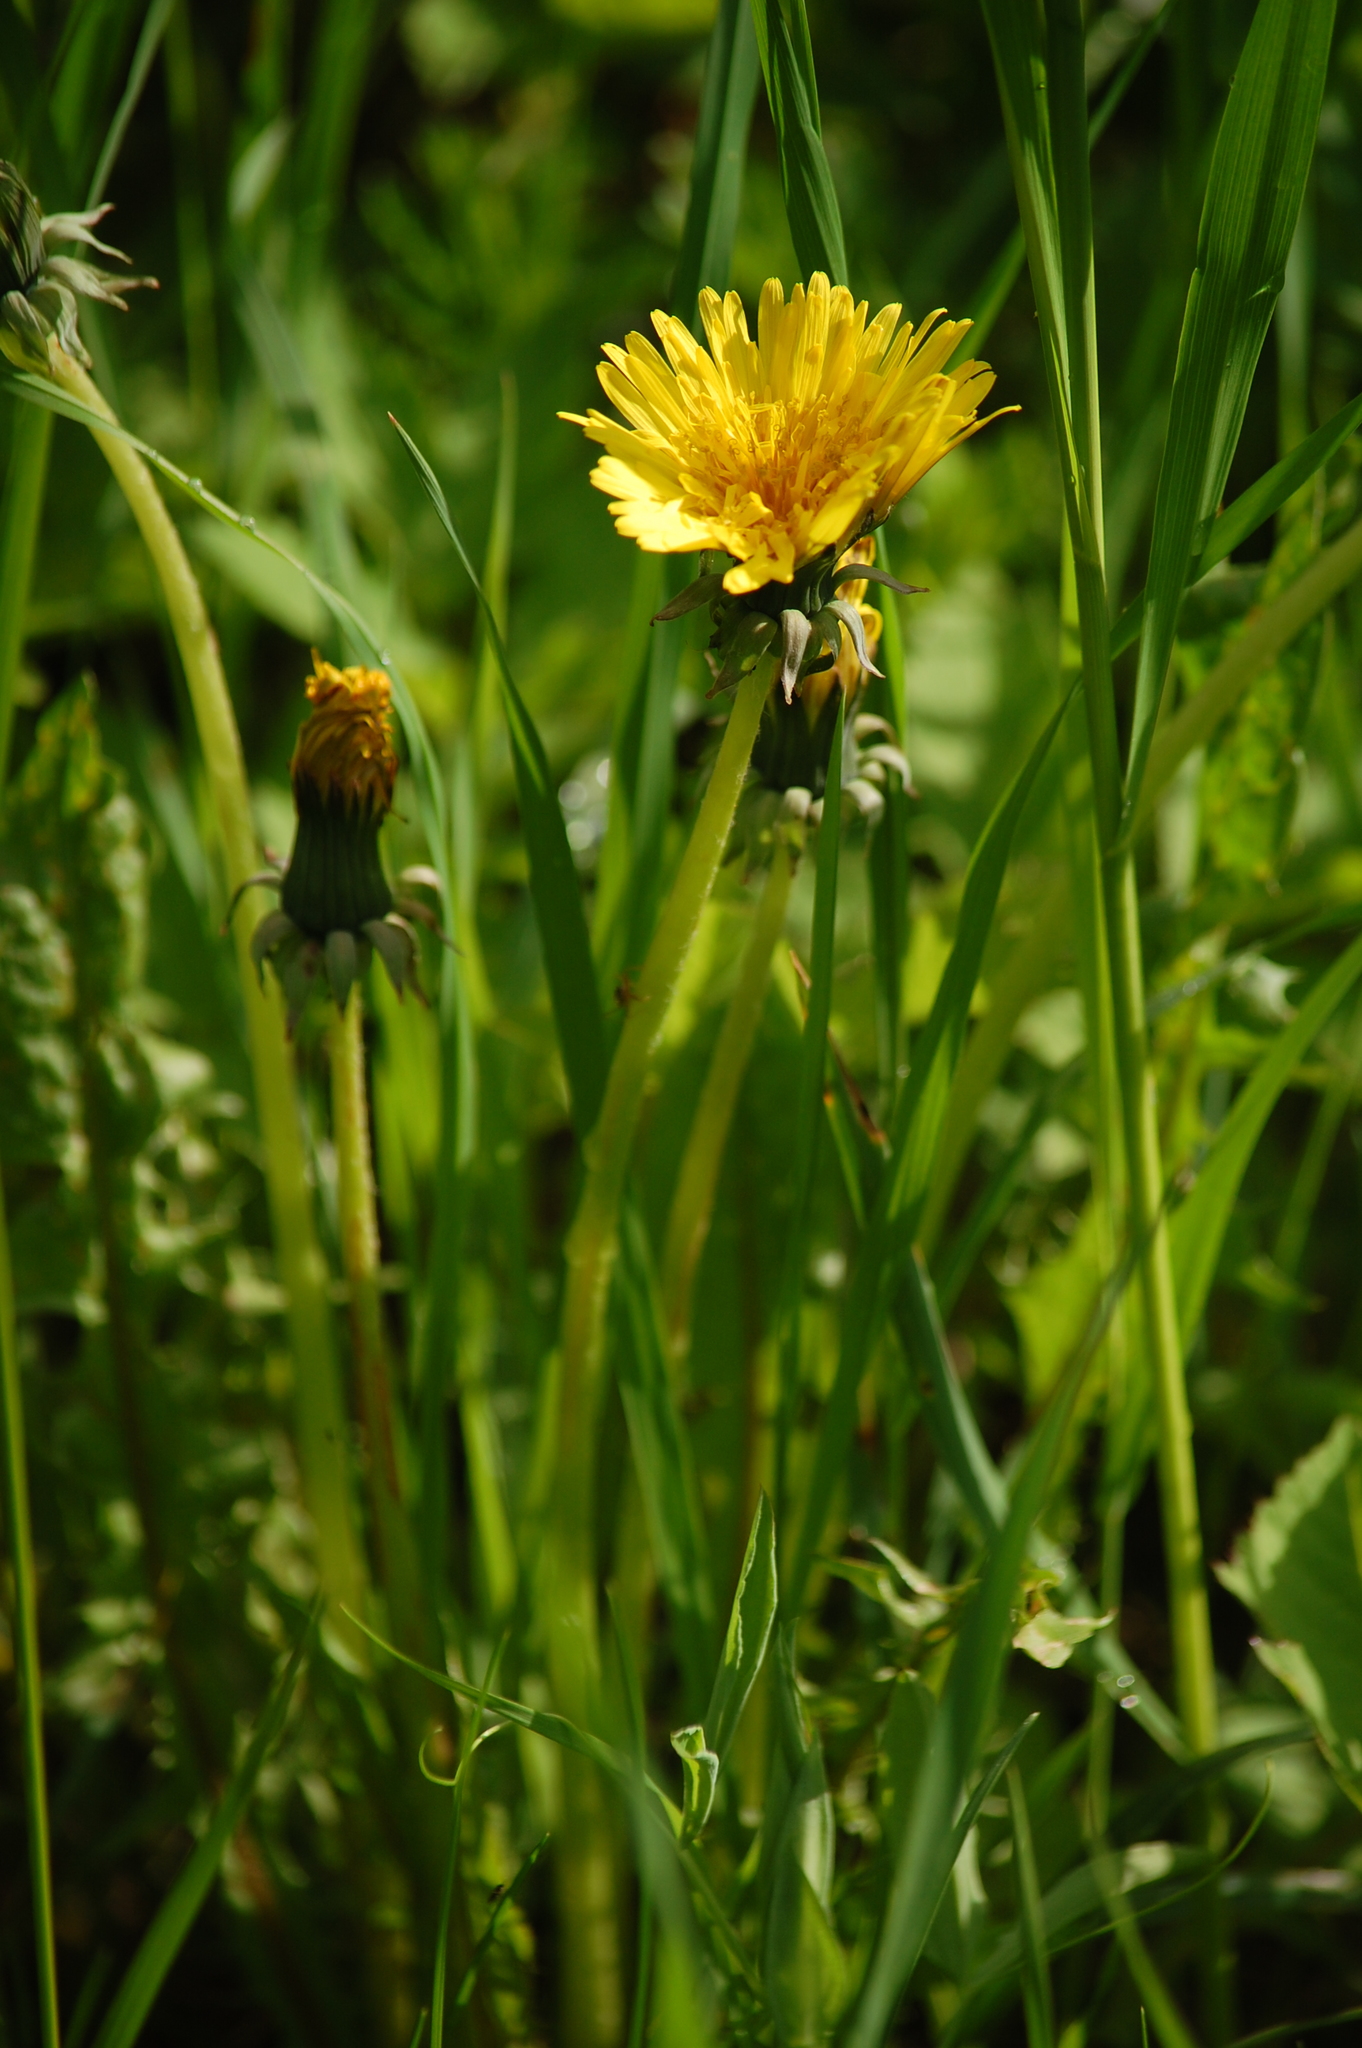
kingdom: Plantae
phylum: Tracheophyta
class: Magnoliopsida
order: Asterales
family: Asteraceae
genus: Taraxacum
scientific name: Taraxacum officinale
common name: Common dandelion
